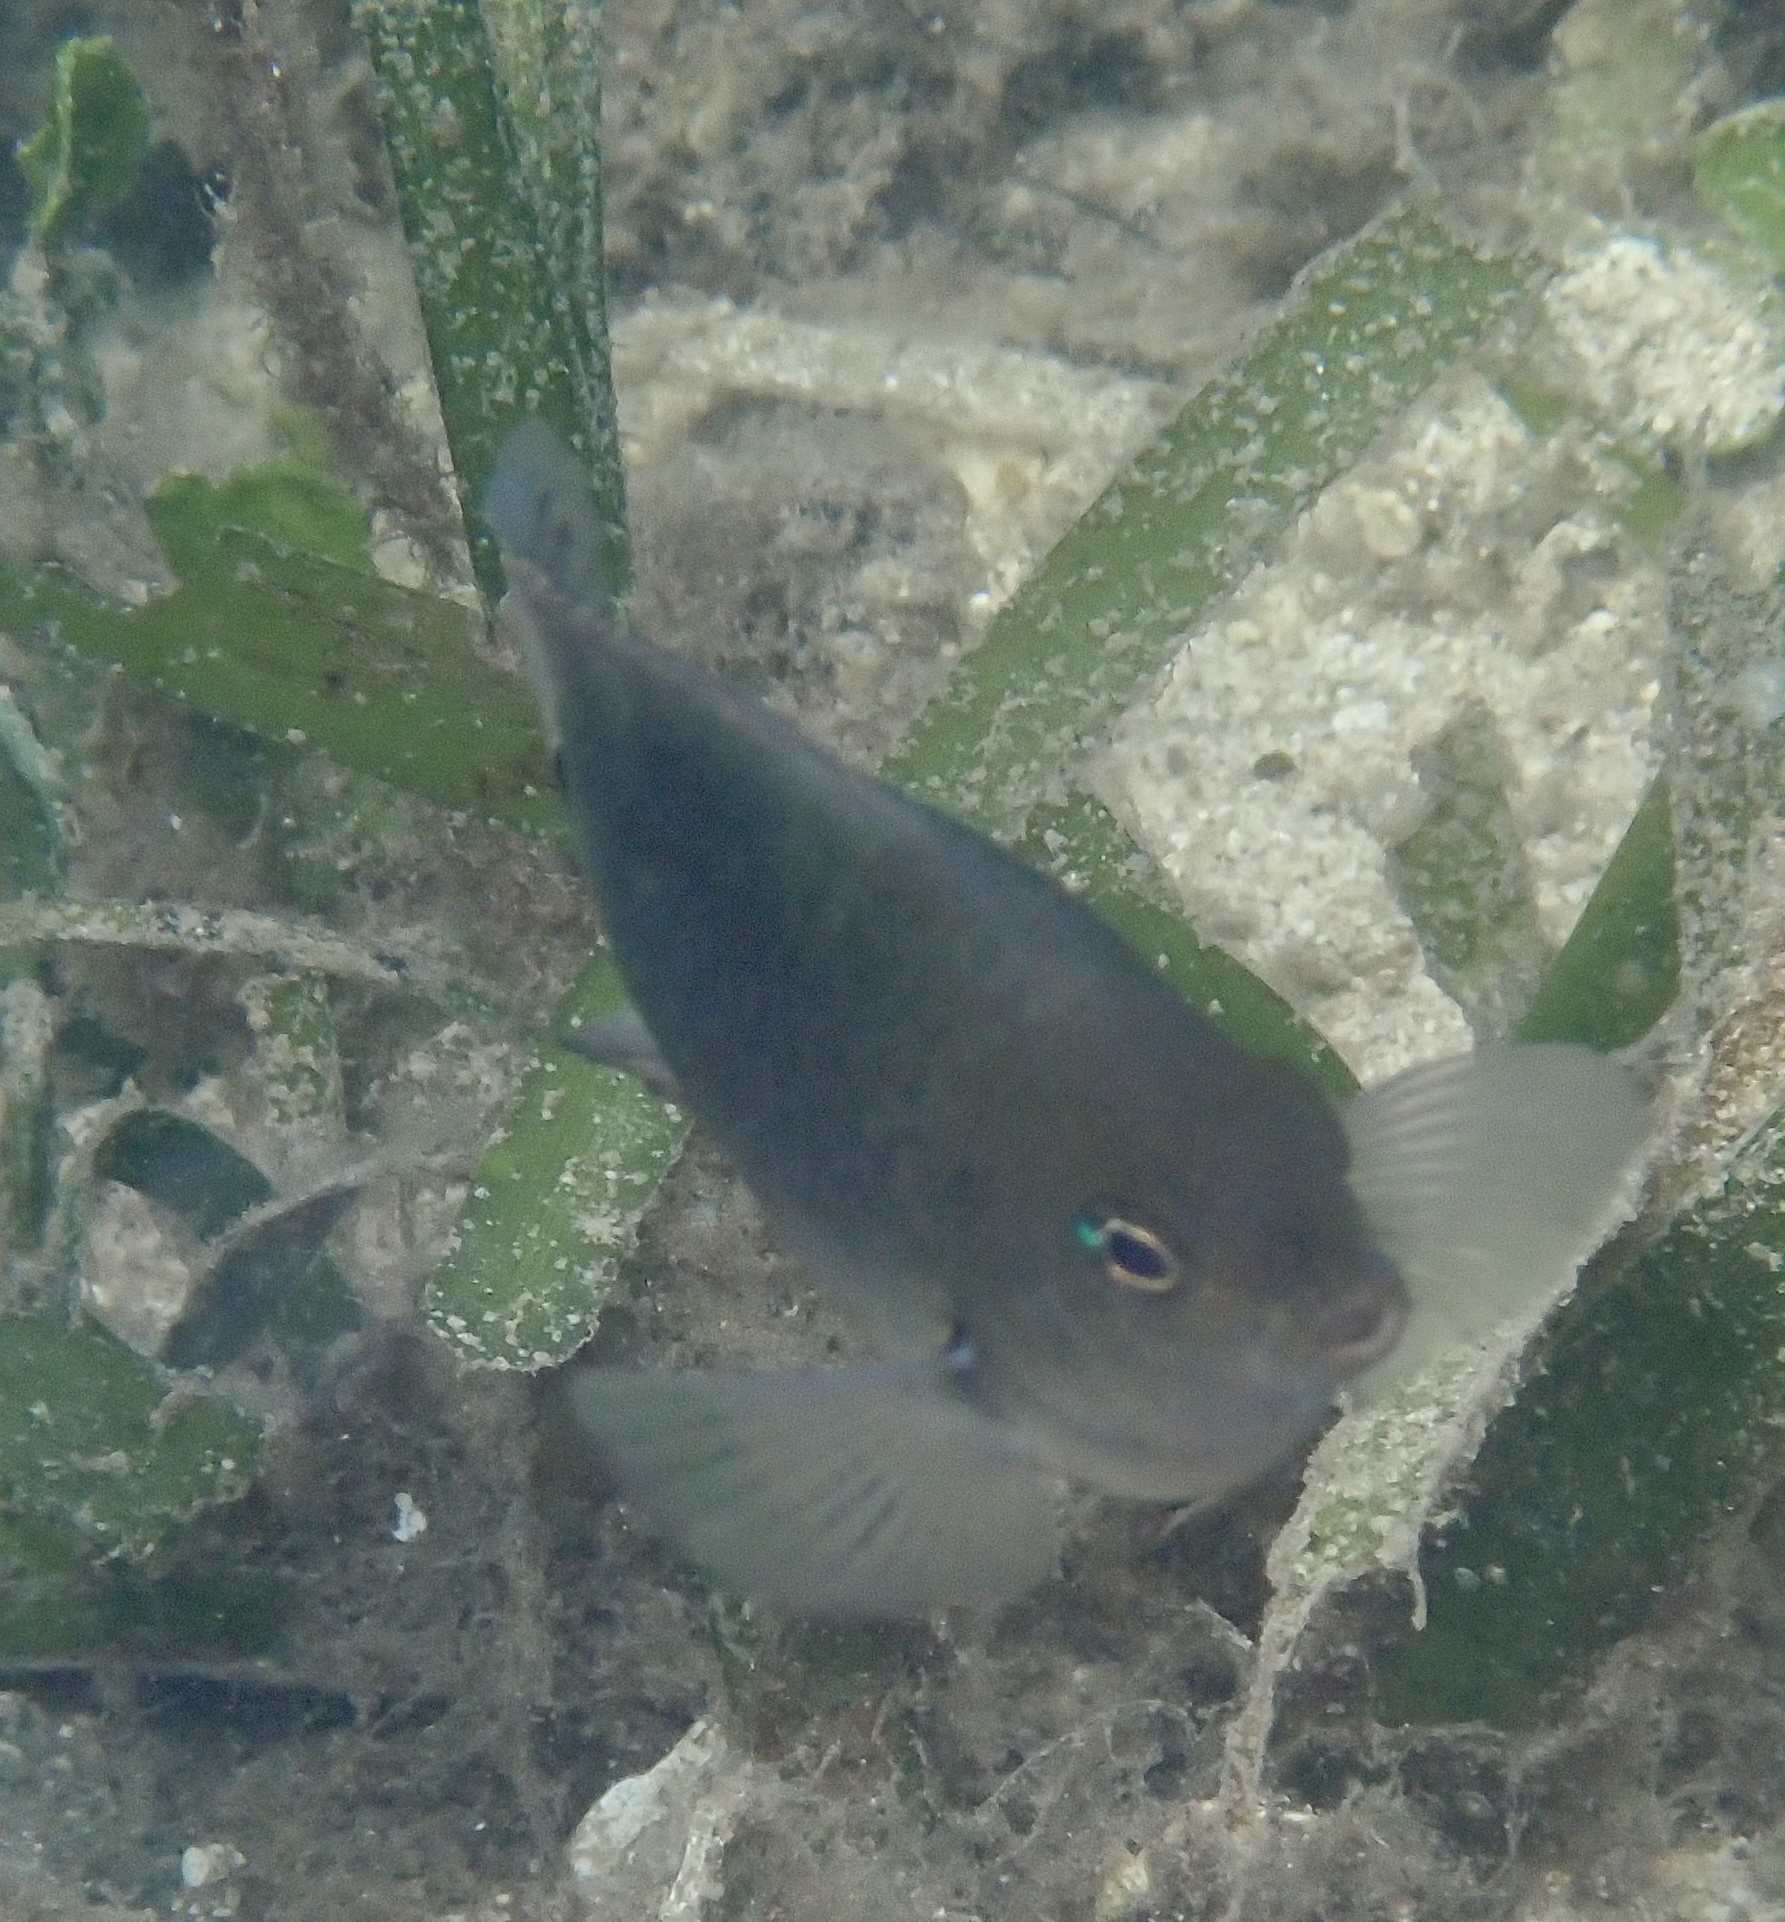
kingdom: Animalia
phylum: Chordata
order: Perciformes
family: Pomacentridae
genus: Pomacentrus
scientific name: Pomacentrus tripunctatus
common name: Threespot damsel
